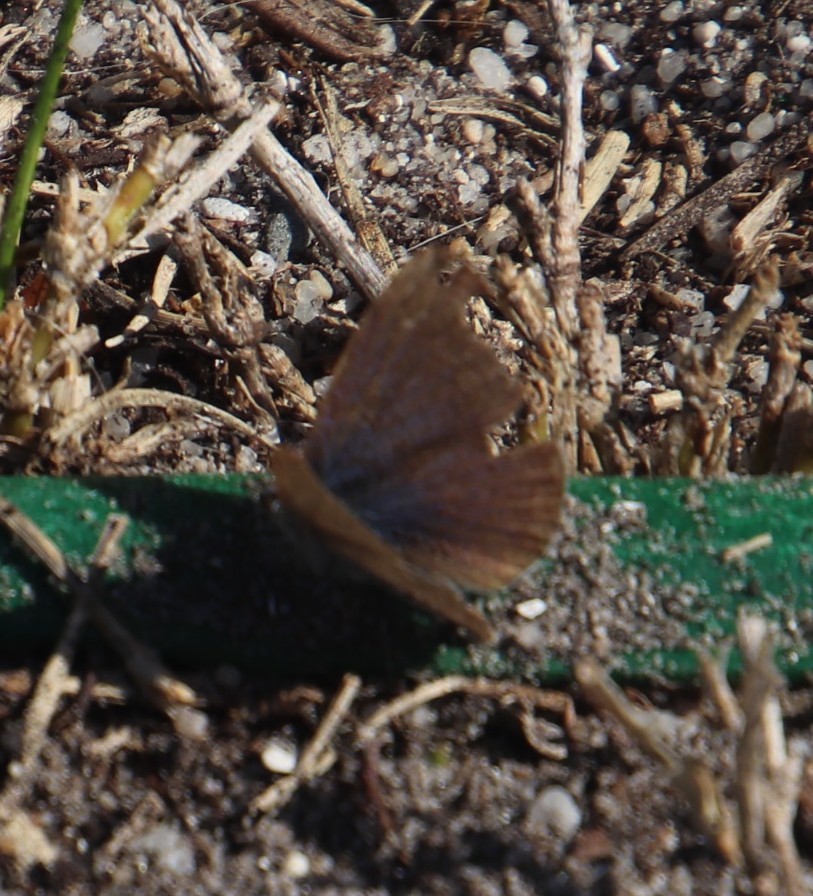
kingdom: Animalia
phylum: Arthropoda
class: Insecta
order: Lepidoptera
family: Lycaenidae
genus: Zizeeria
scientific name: Zizeeria knysna
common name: African grass blue
